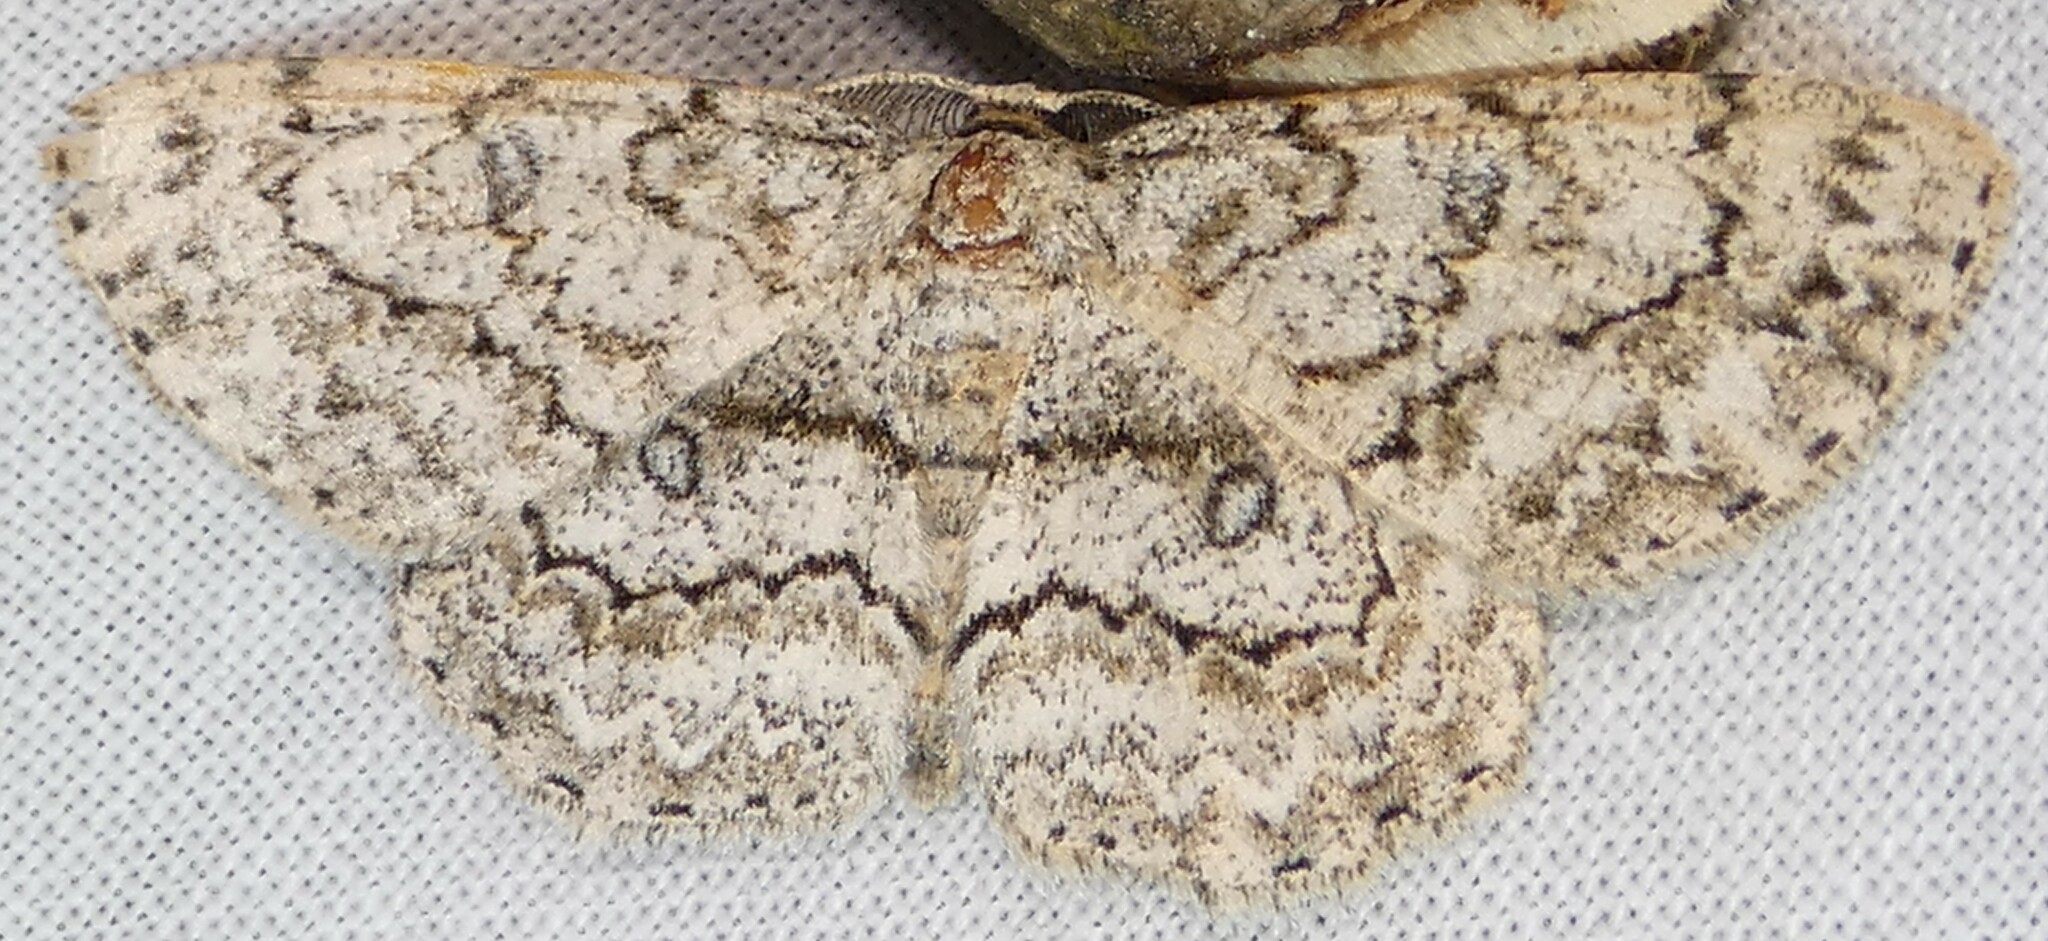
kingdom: Animalia
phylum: Arthropoda
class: Insecta
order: Lepidoptera
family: Geometridae
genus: Hypomecis
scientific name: Hypomecis umbrosaria
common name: Umber moth
